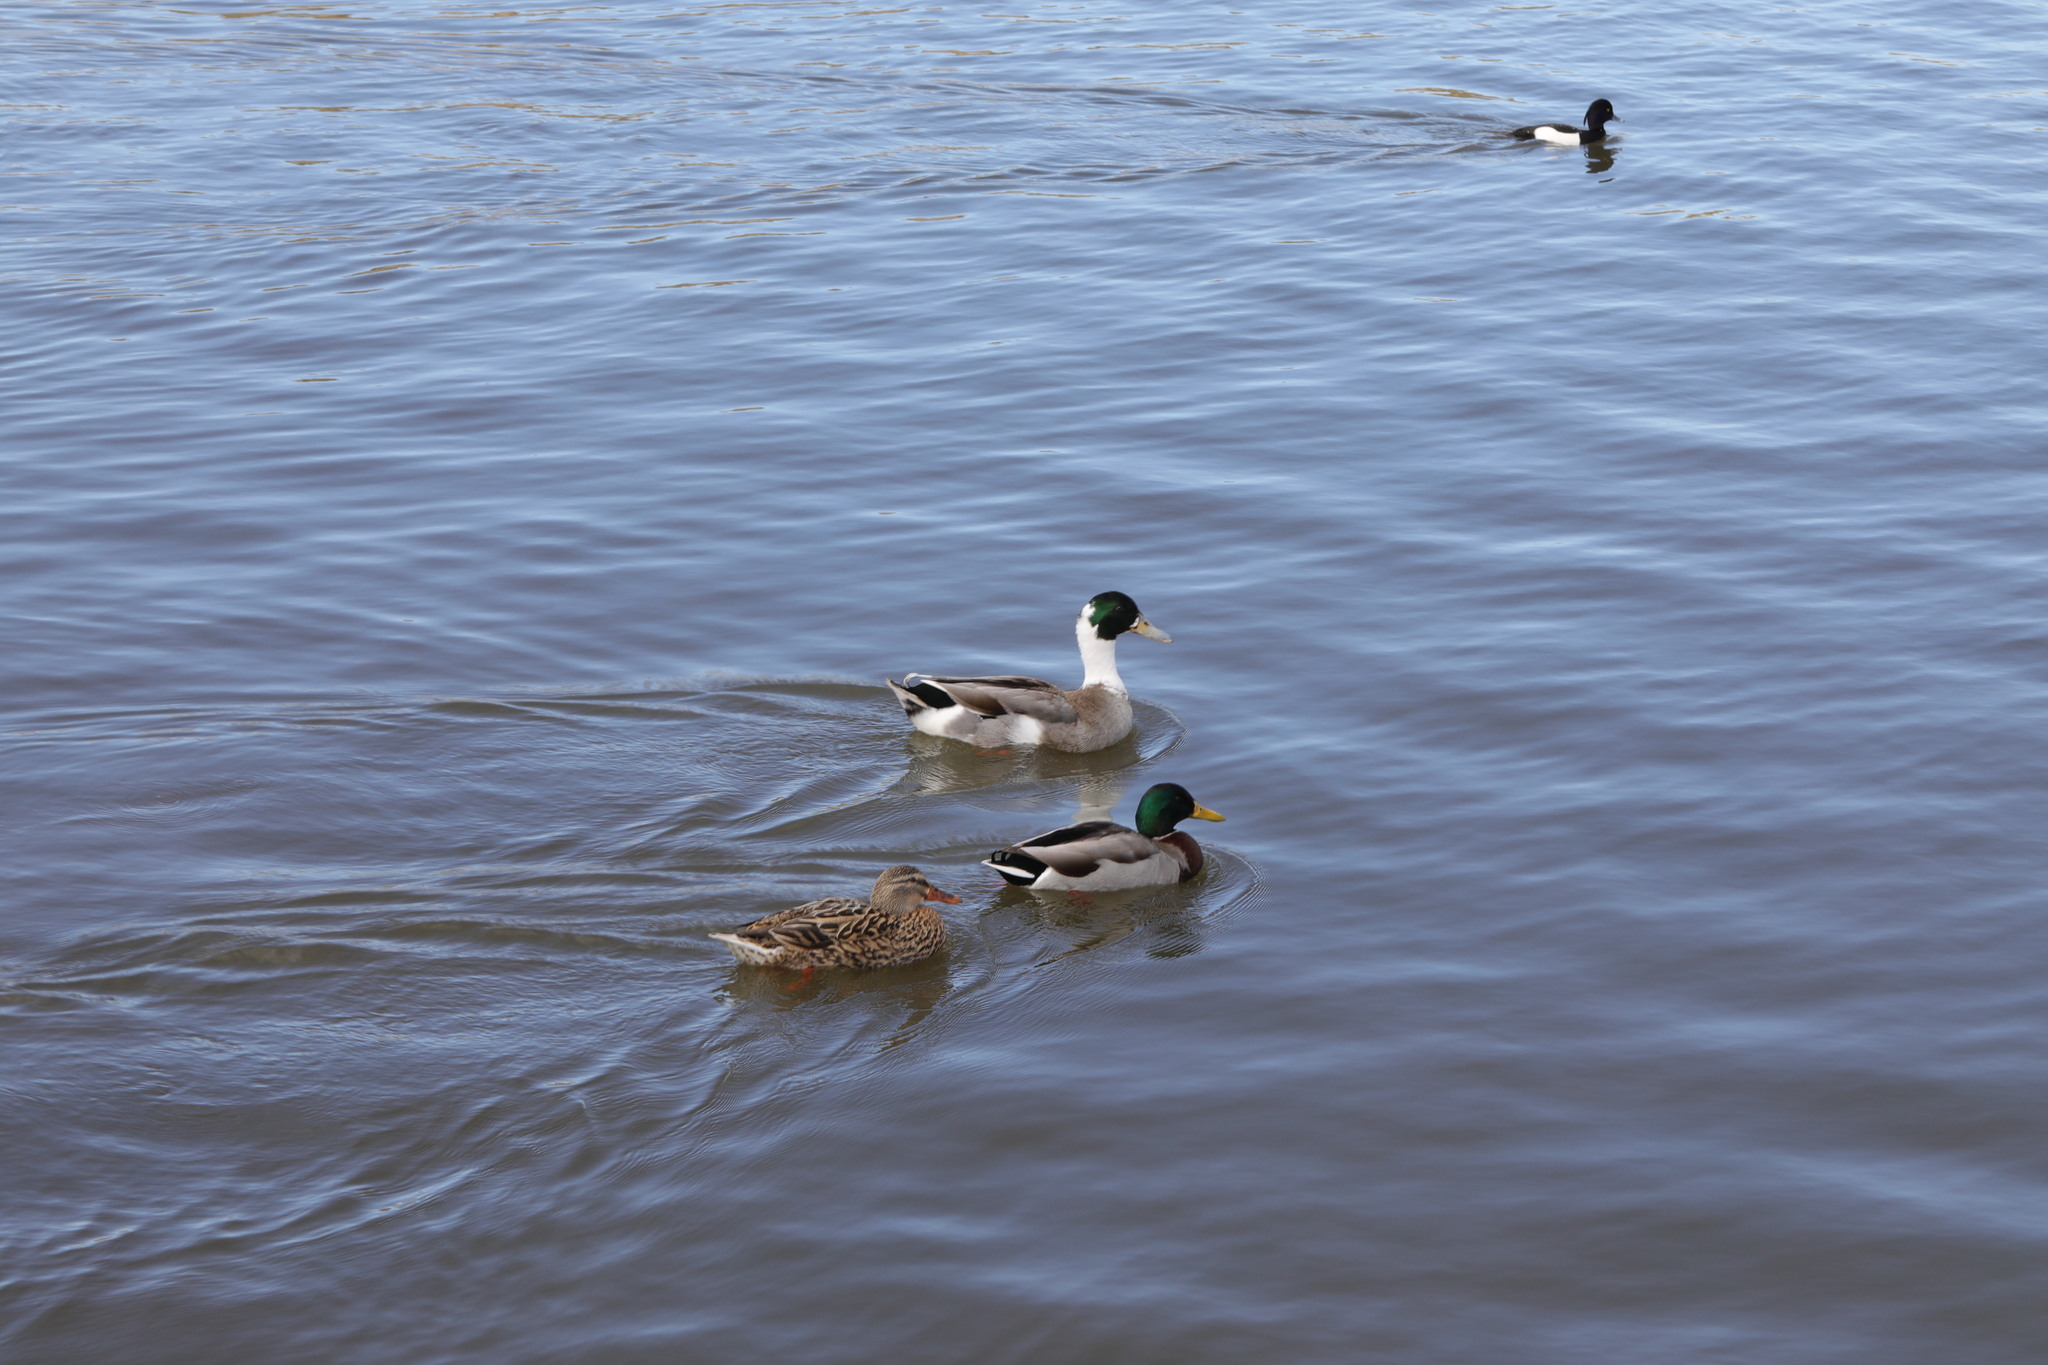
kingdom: Animalia
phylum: Chordata
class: Aves
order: Anseriformes
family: Anatidae
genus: Anas
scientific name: Anas platyrhynchos
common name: Mallard
